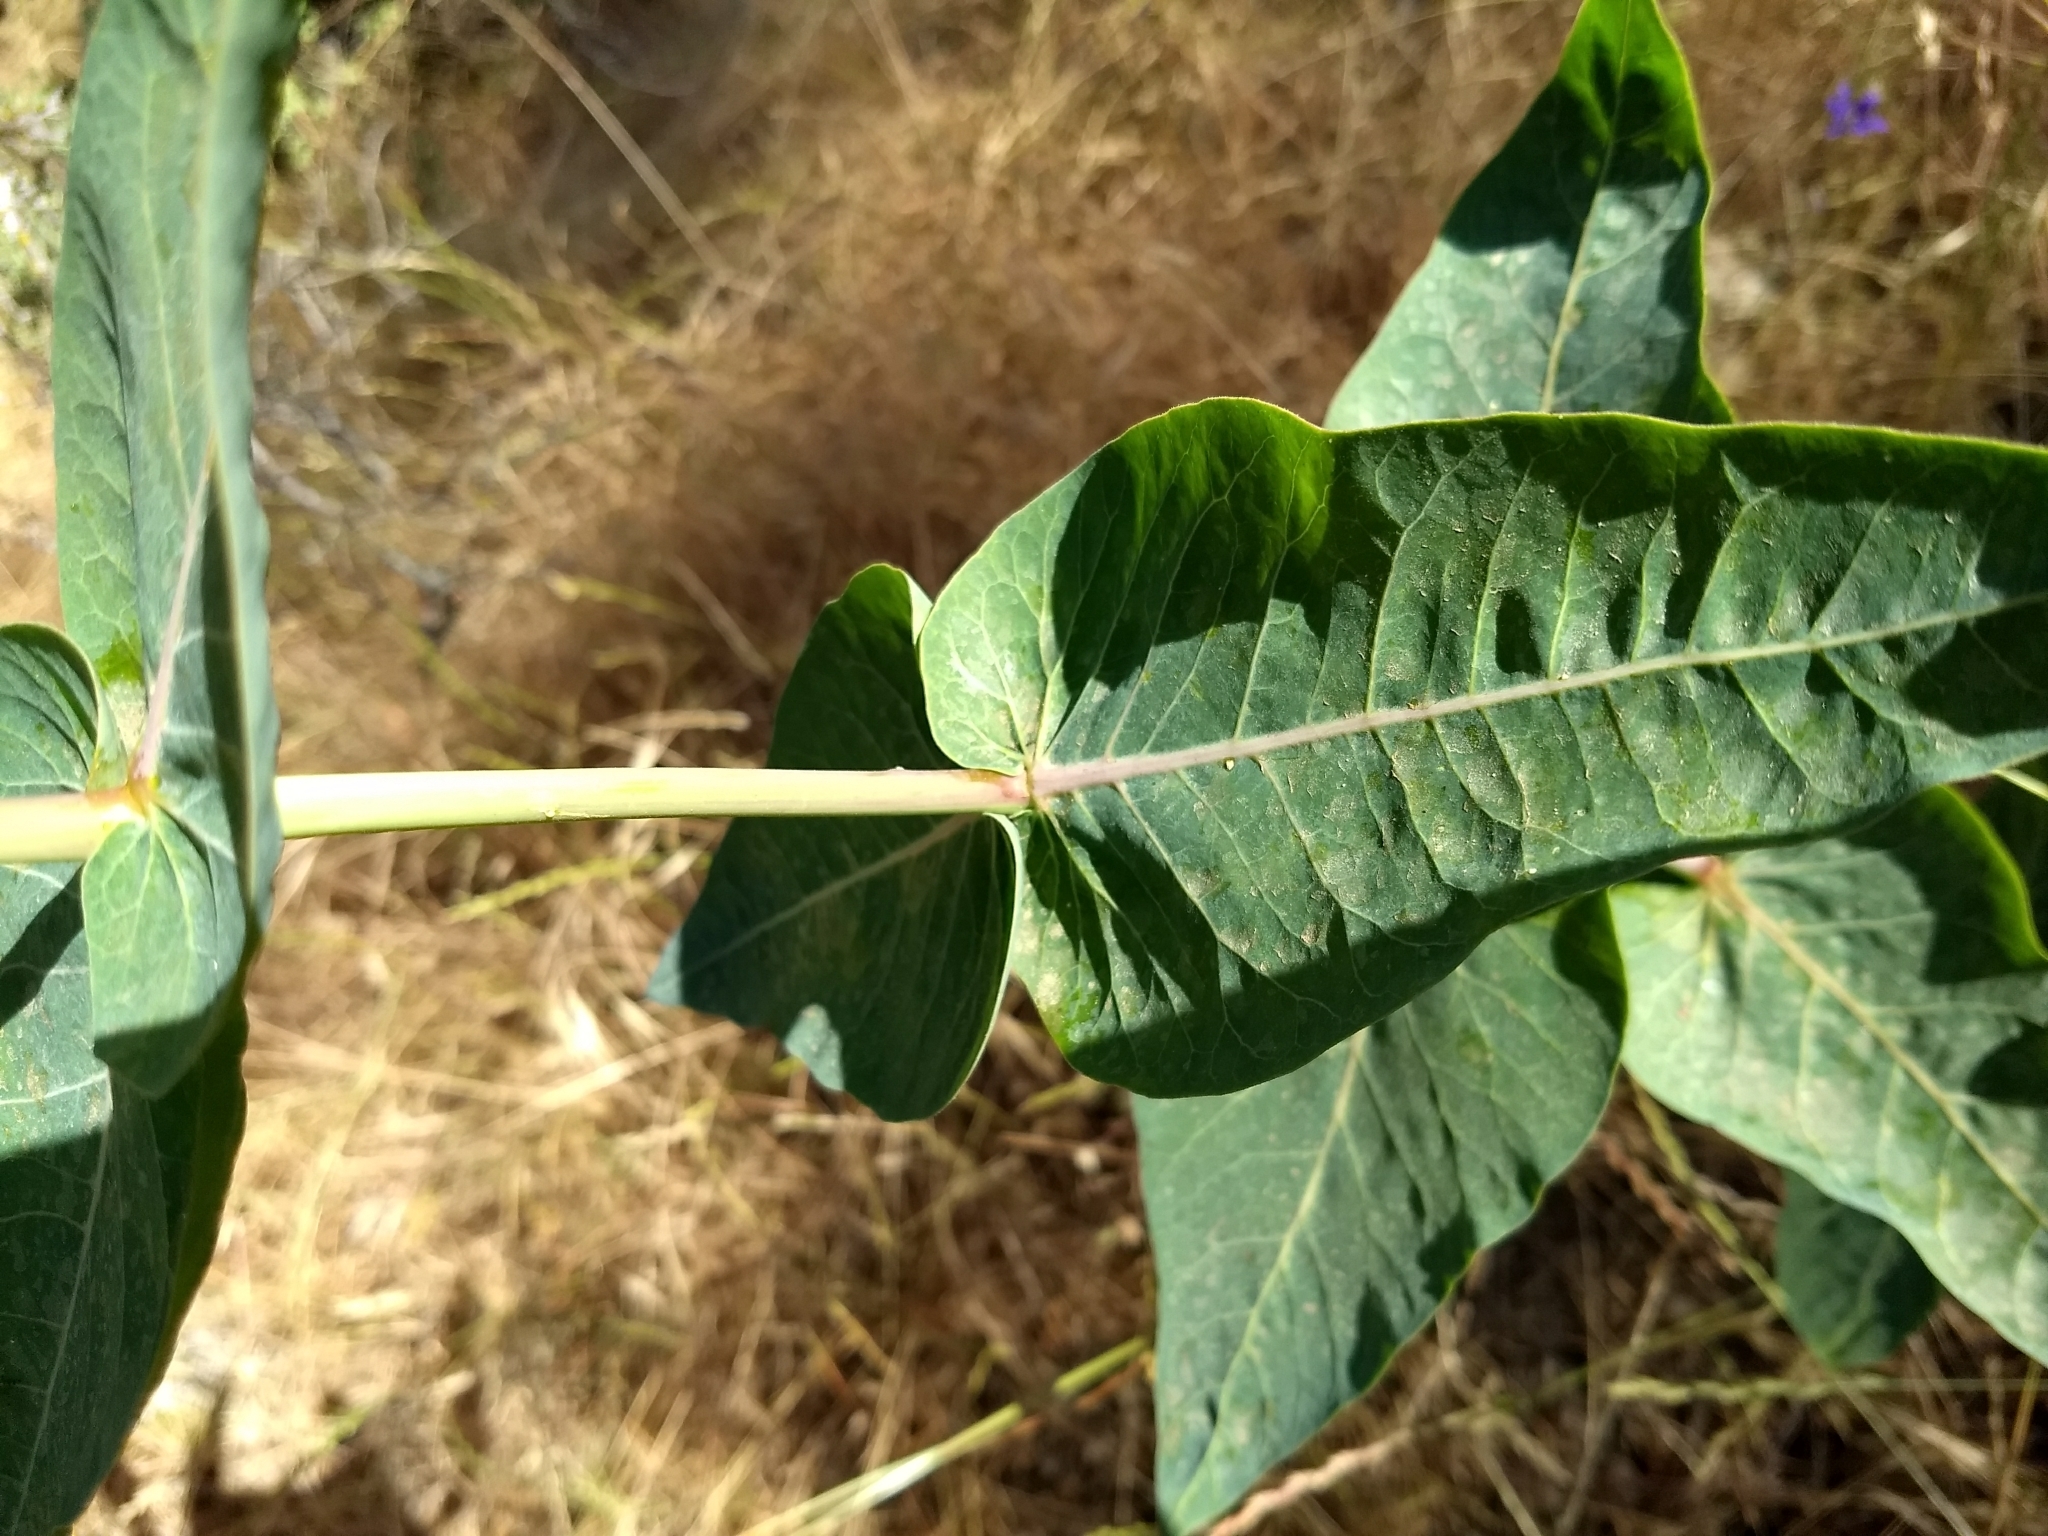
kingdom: Plantae
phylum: Tracheophyta
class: Magnoliopsida
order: Gentianales
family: Apocynaceae
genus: Asclepias
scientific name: Asclepias cordifolia
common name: Purple milkweed
